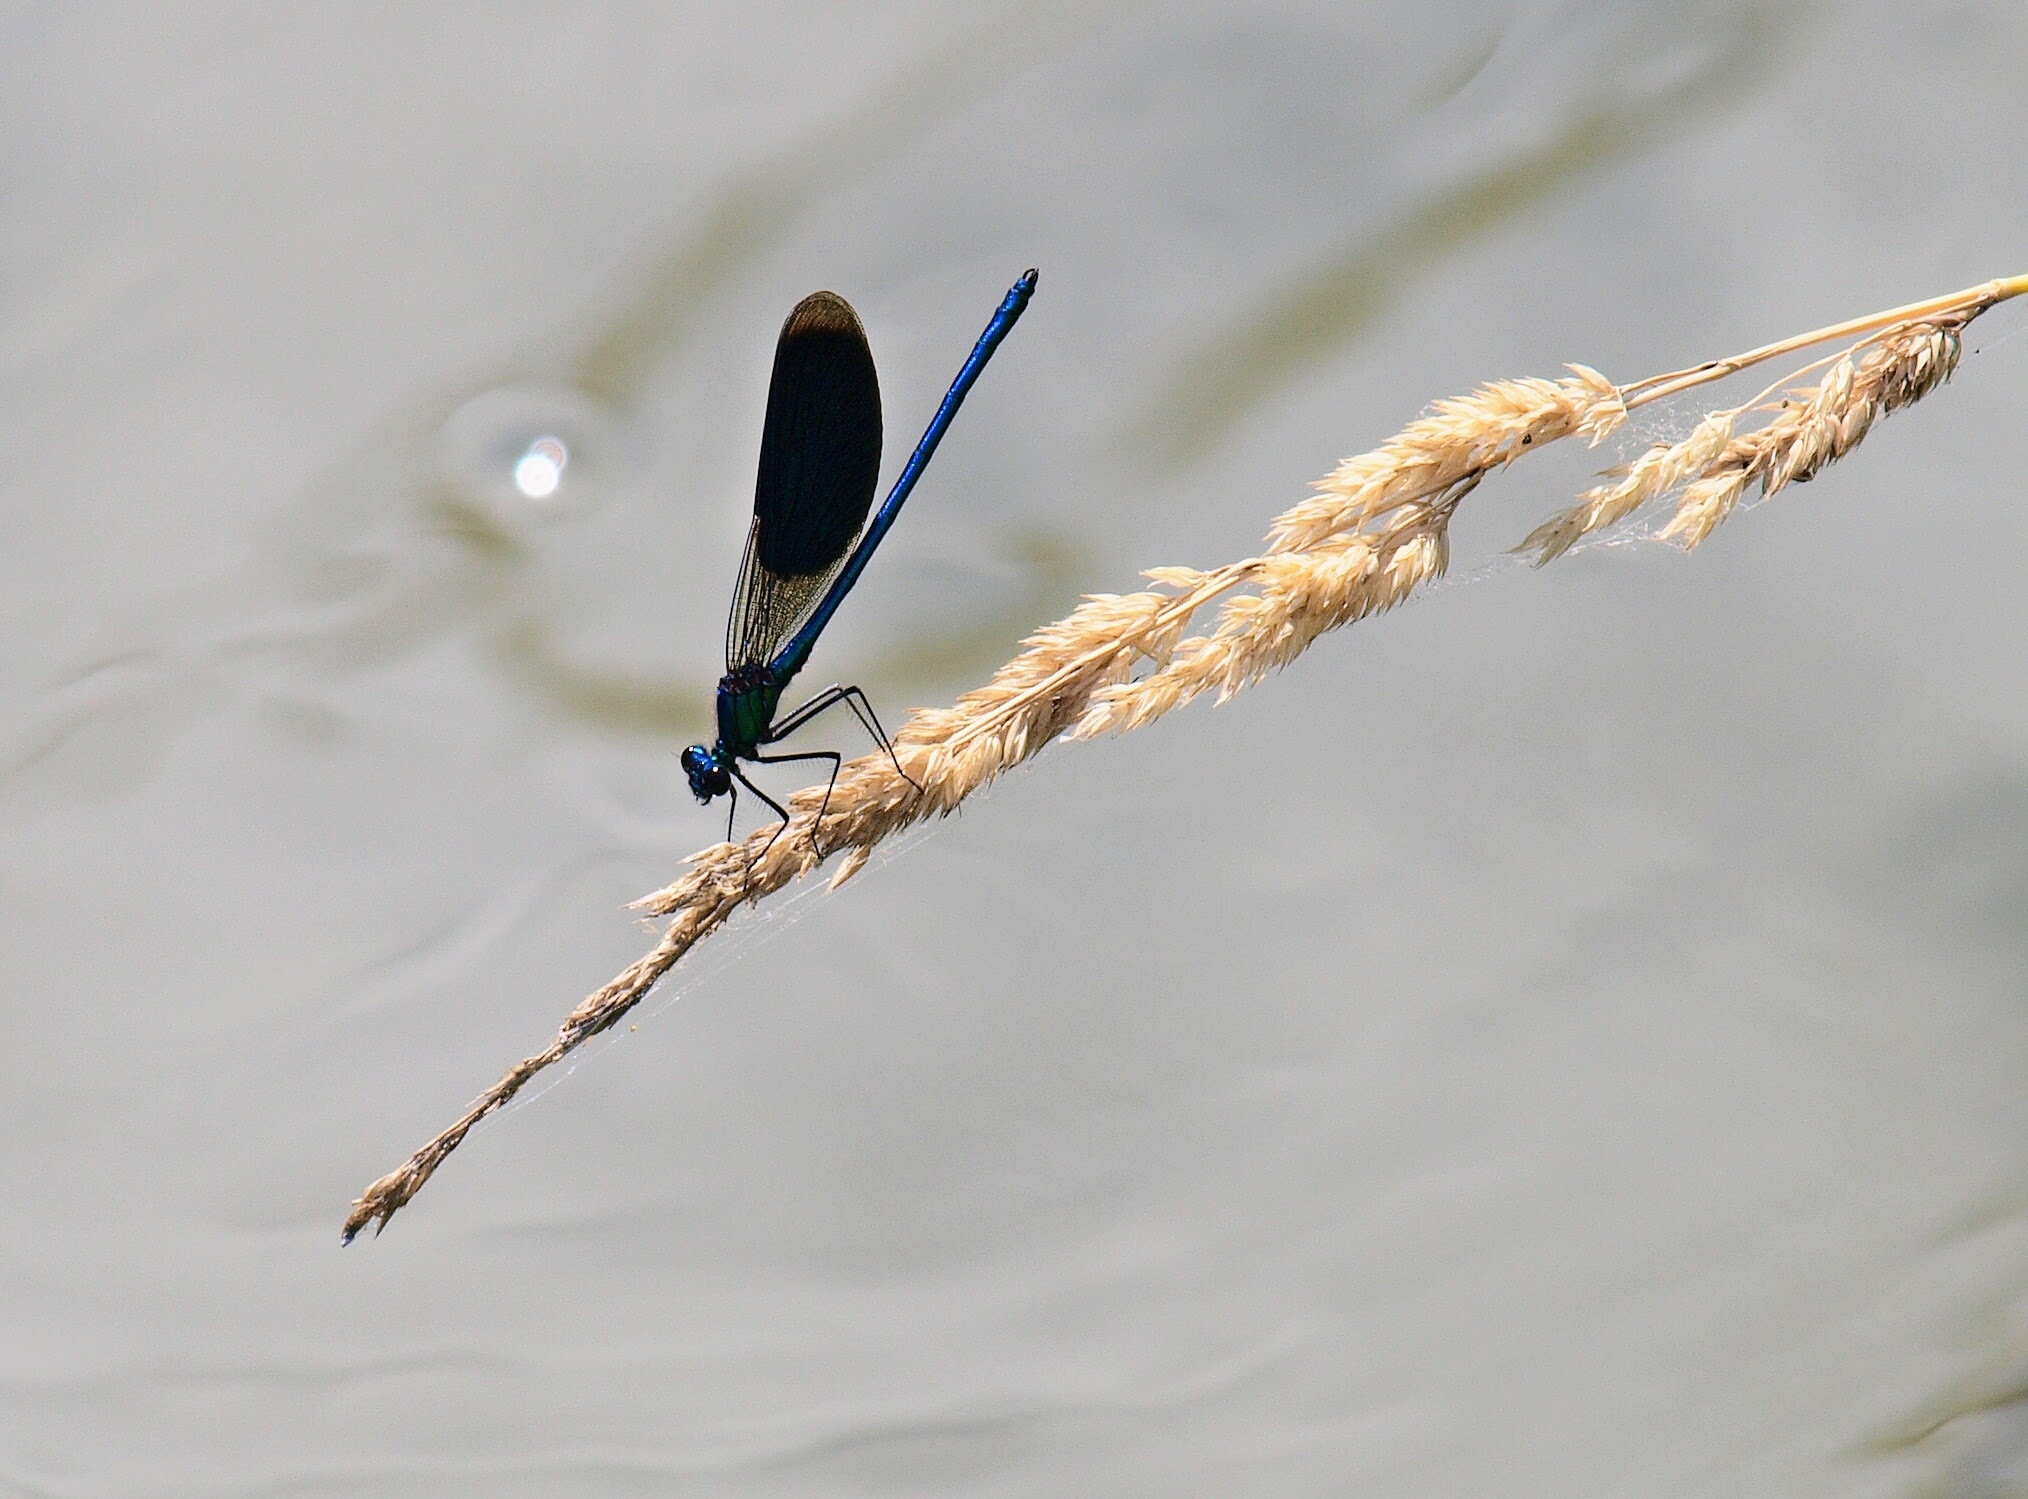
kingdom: Animalia
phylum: Arthropoda
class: Insecta
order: Odonata
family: Calopterygidae
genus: Calopteryx
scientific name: Calopteryx splendens
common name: Banded demoiselle
